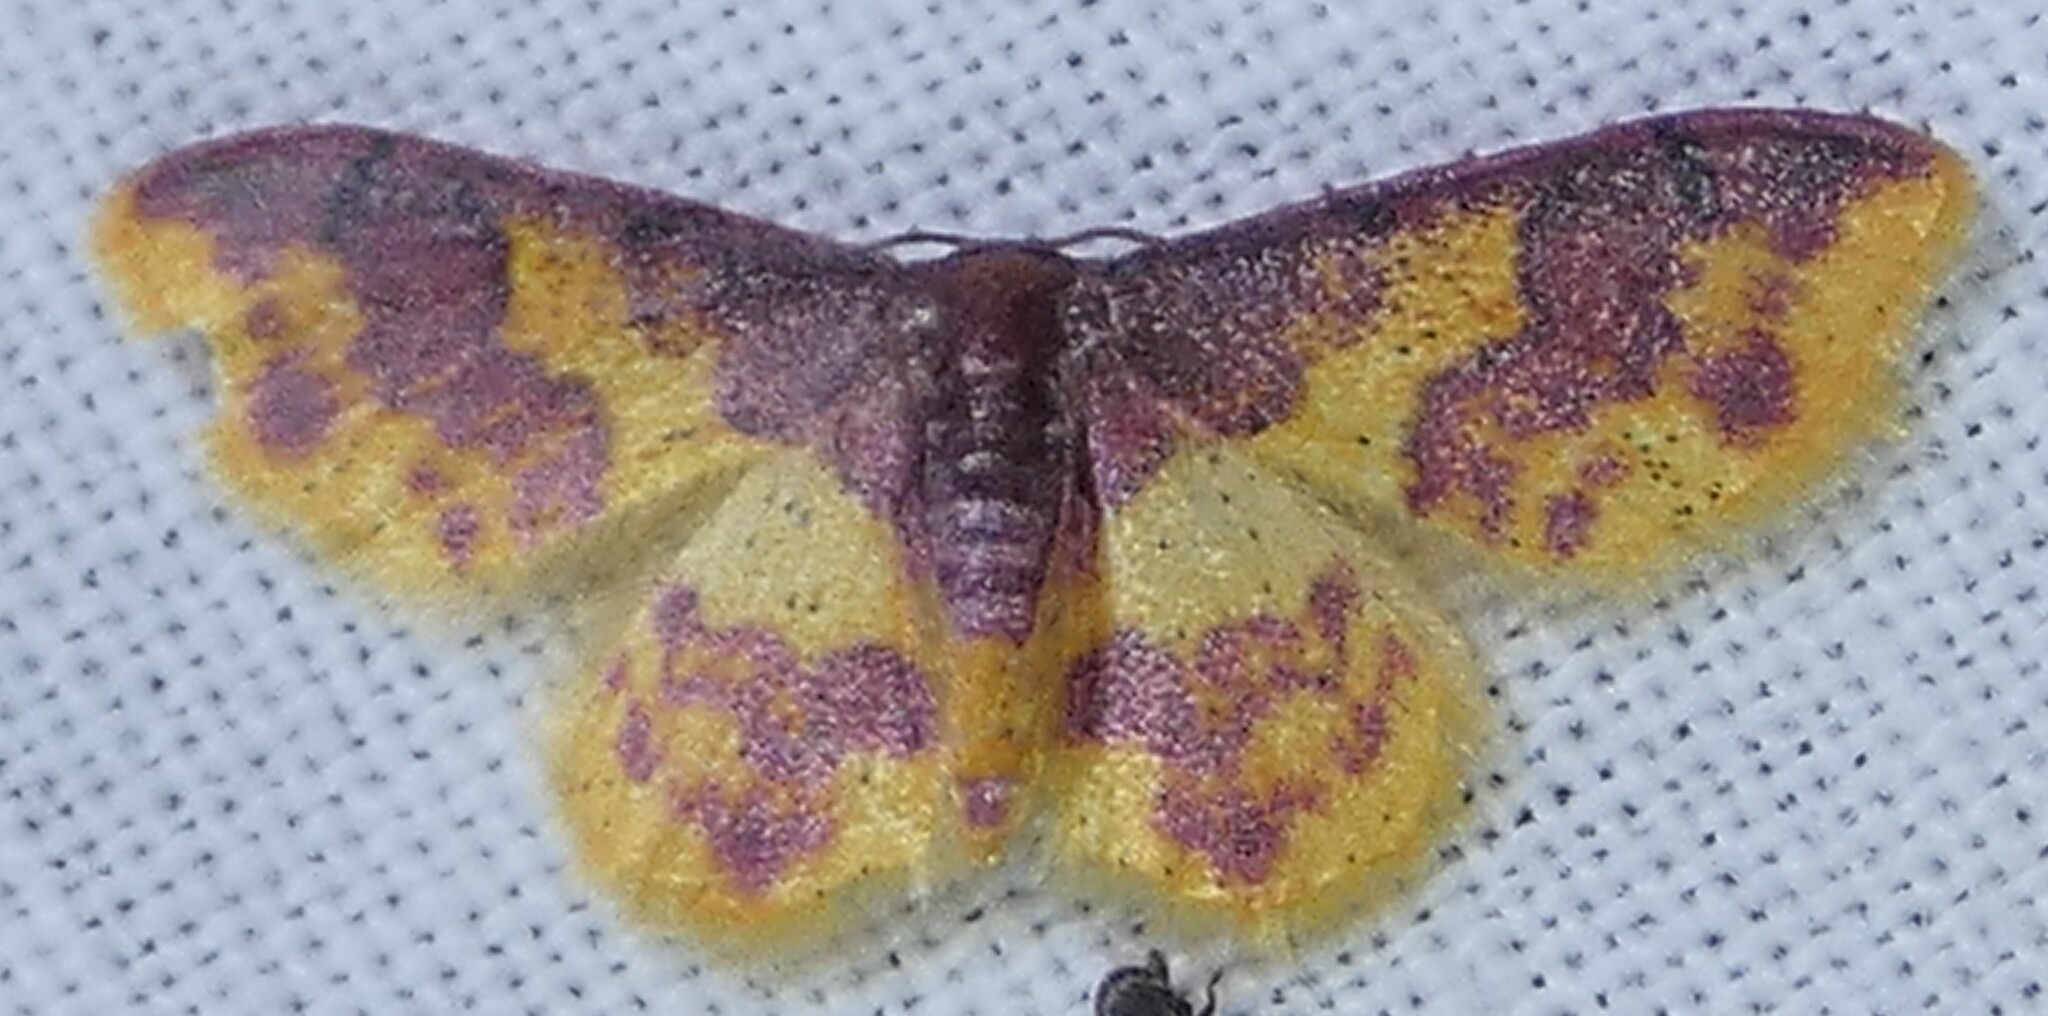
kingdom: Animalia
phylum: Arthropoda
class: Insecta
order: Lepidoptera
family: Geometridae
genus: Lophosis
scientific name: Lophosis labeculata
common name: Stained lophosis moth
